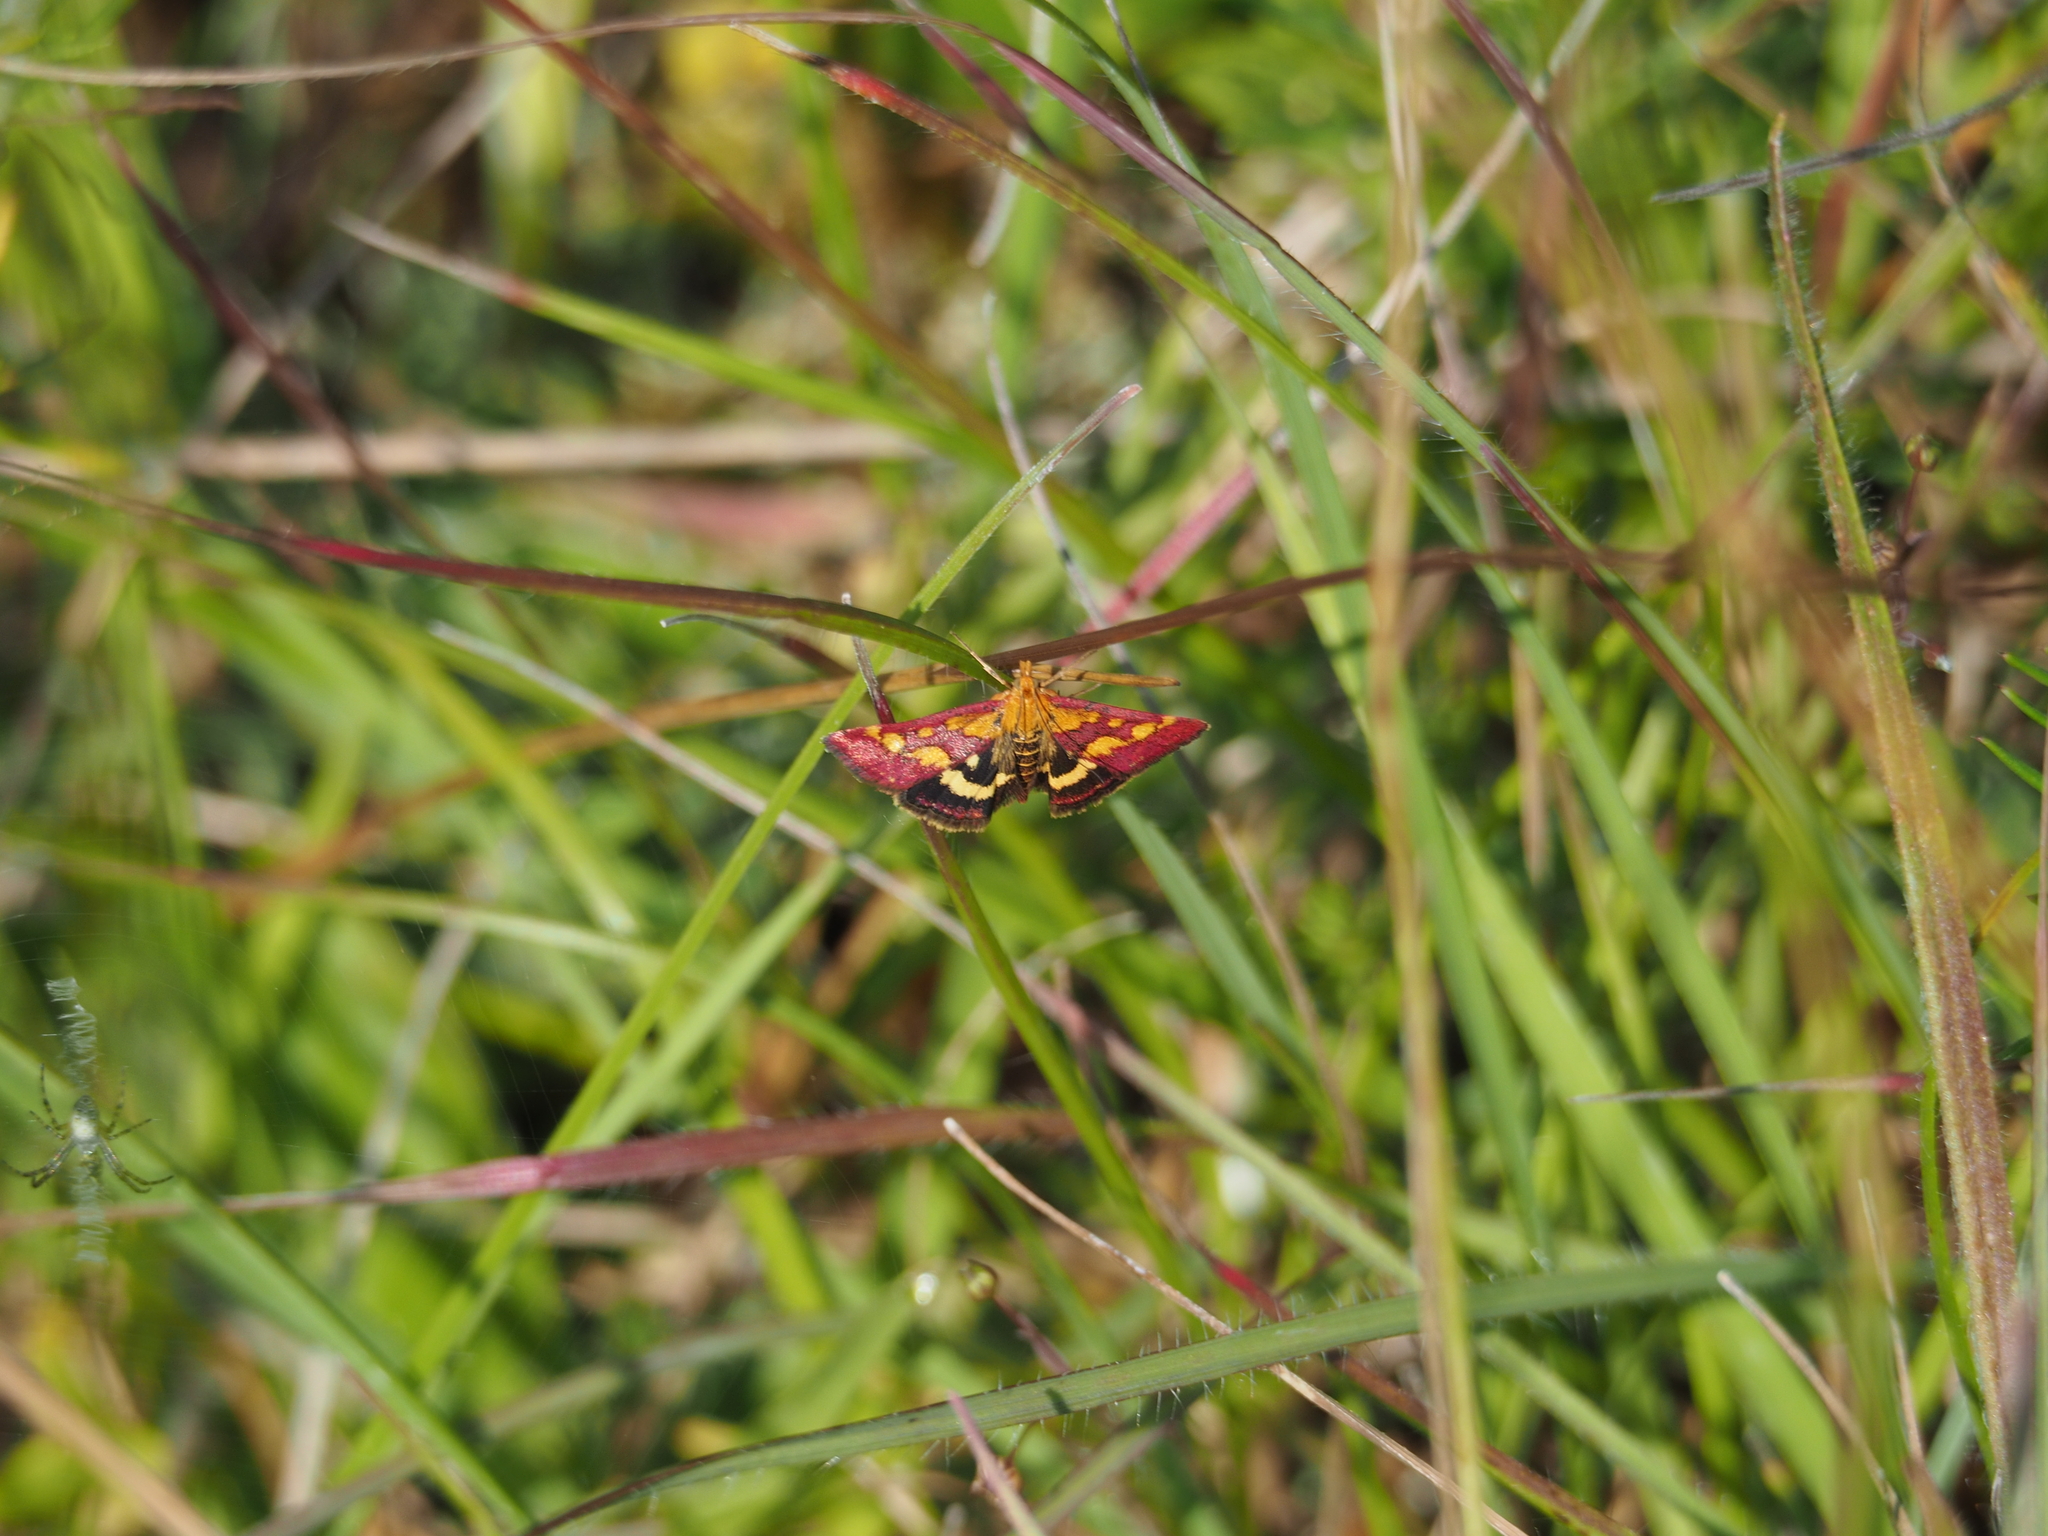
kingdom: Animalia
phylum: Arthropoda
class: Insecta
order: Lepidoptera
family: Crambidae
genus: Pyrausta
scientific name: Pyrausta purpuralis
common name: Common purple & gold
